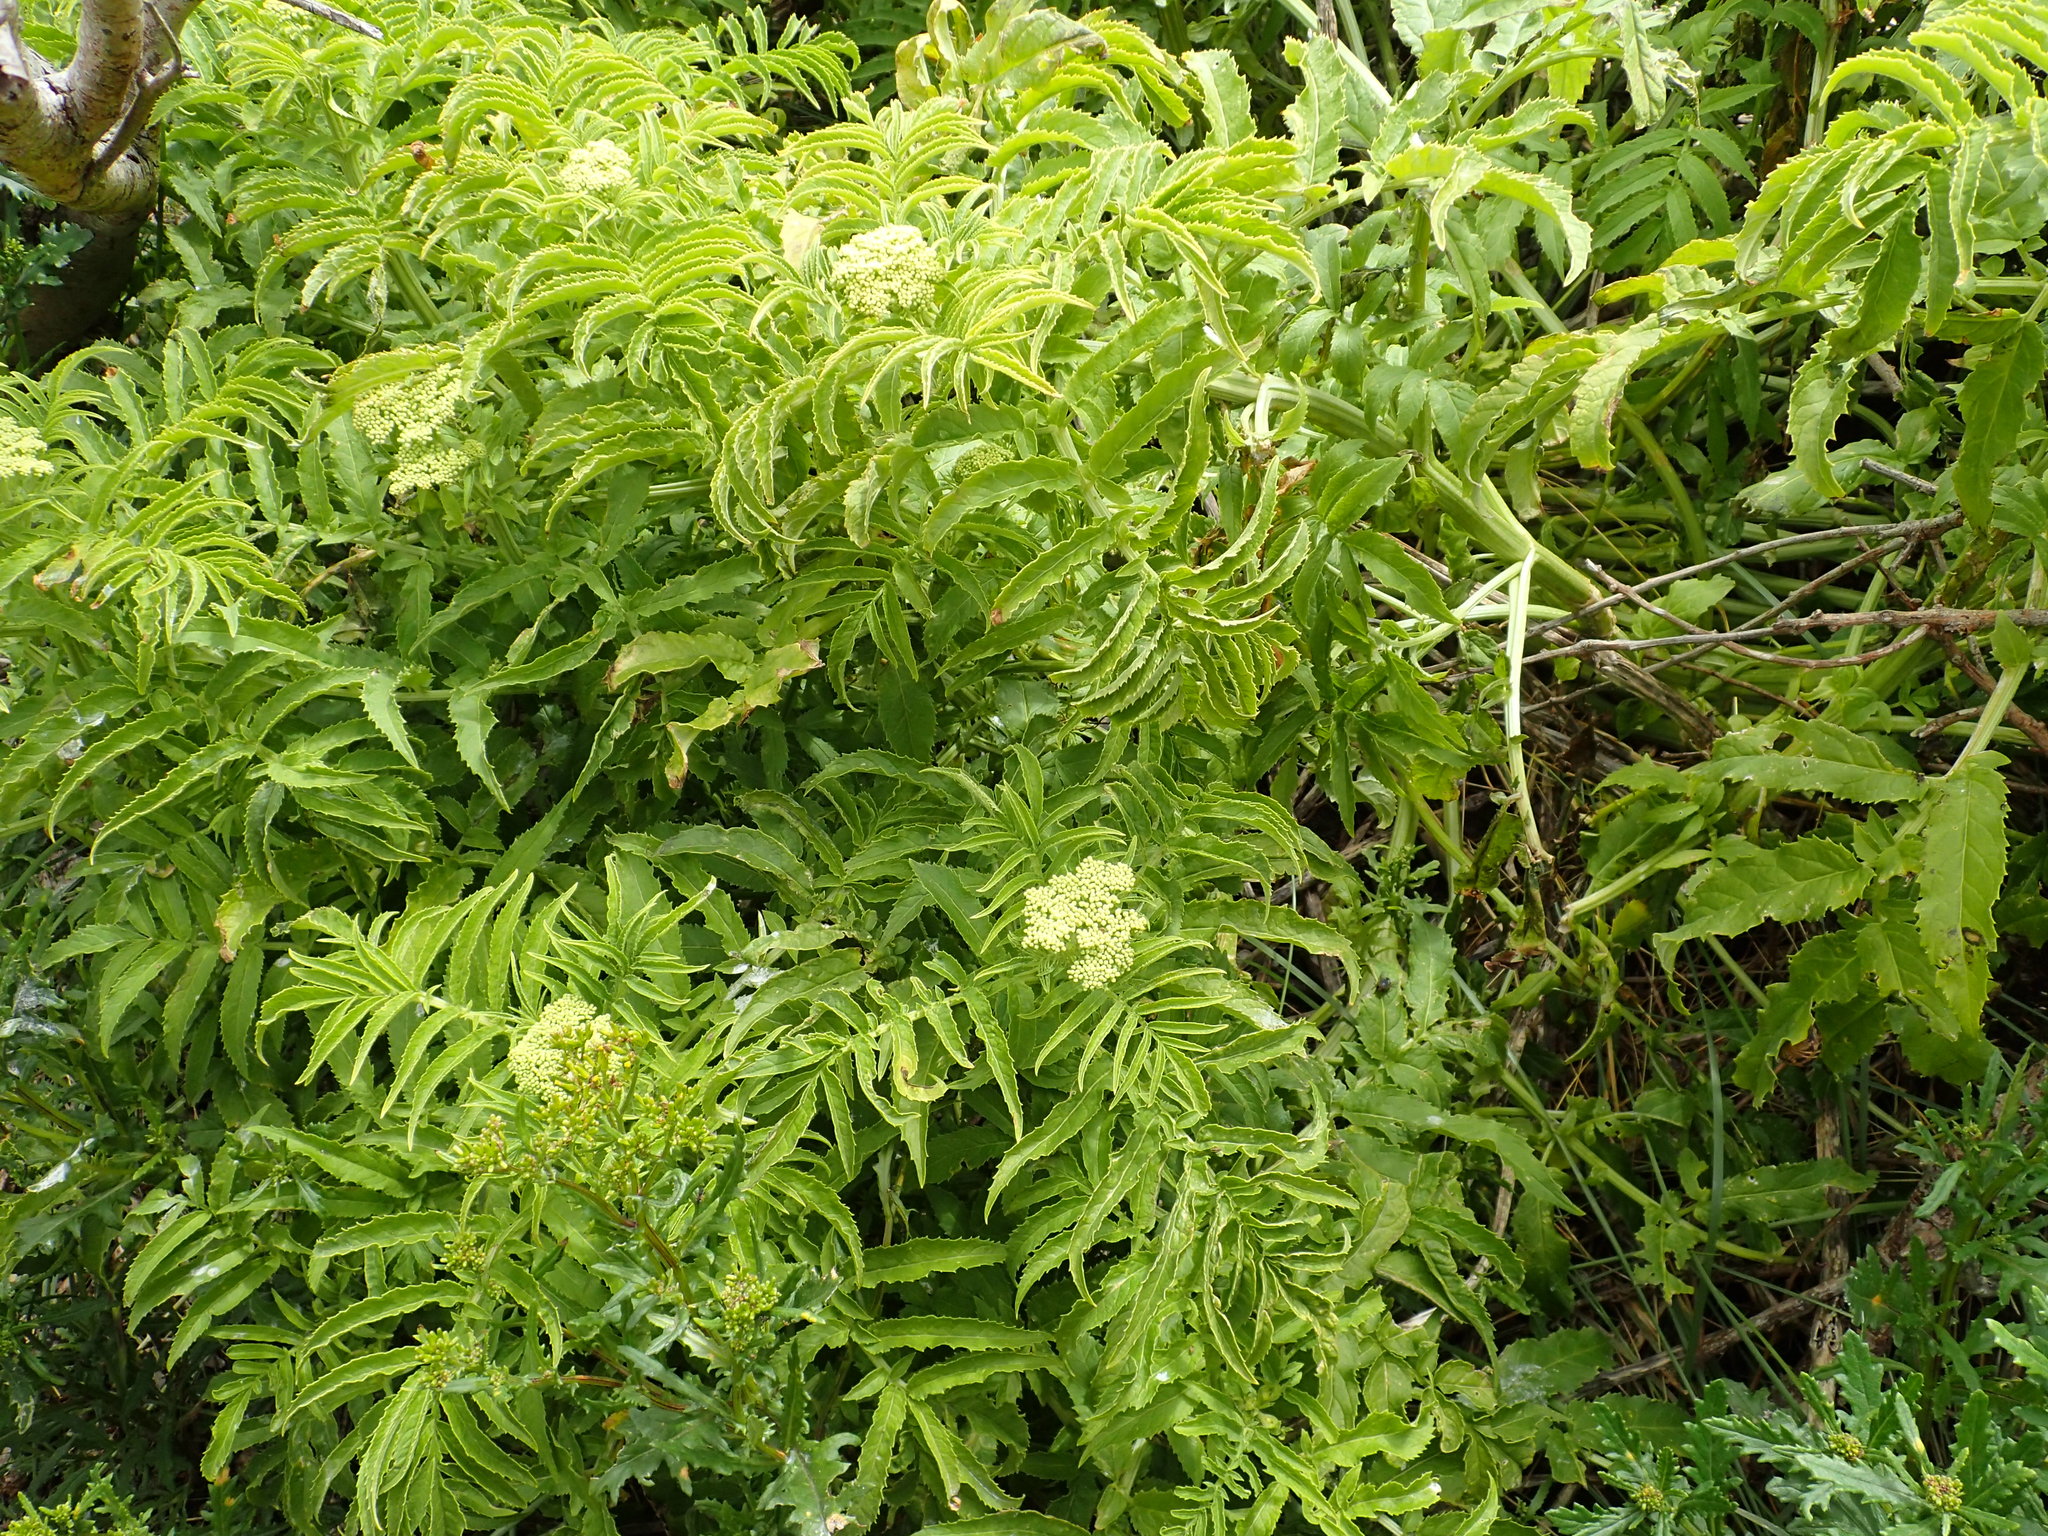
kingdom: Plantae
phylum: Tracheophyta
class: Magnoliopsida
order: Dipsacales
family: Viburnaceae
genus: Sambucus
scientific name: Sambucus gaudichaudiana
